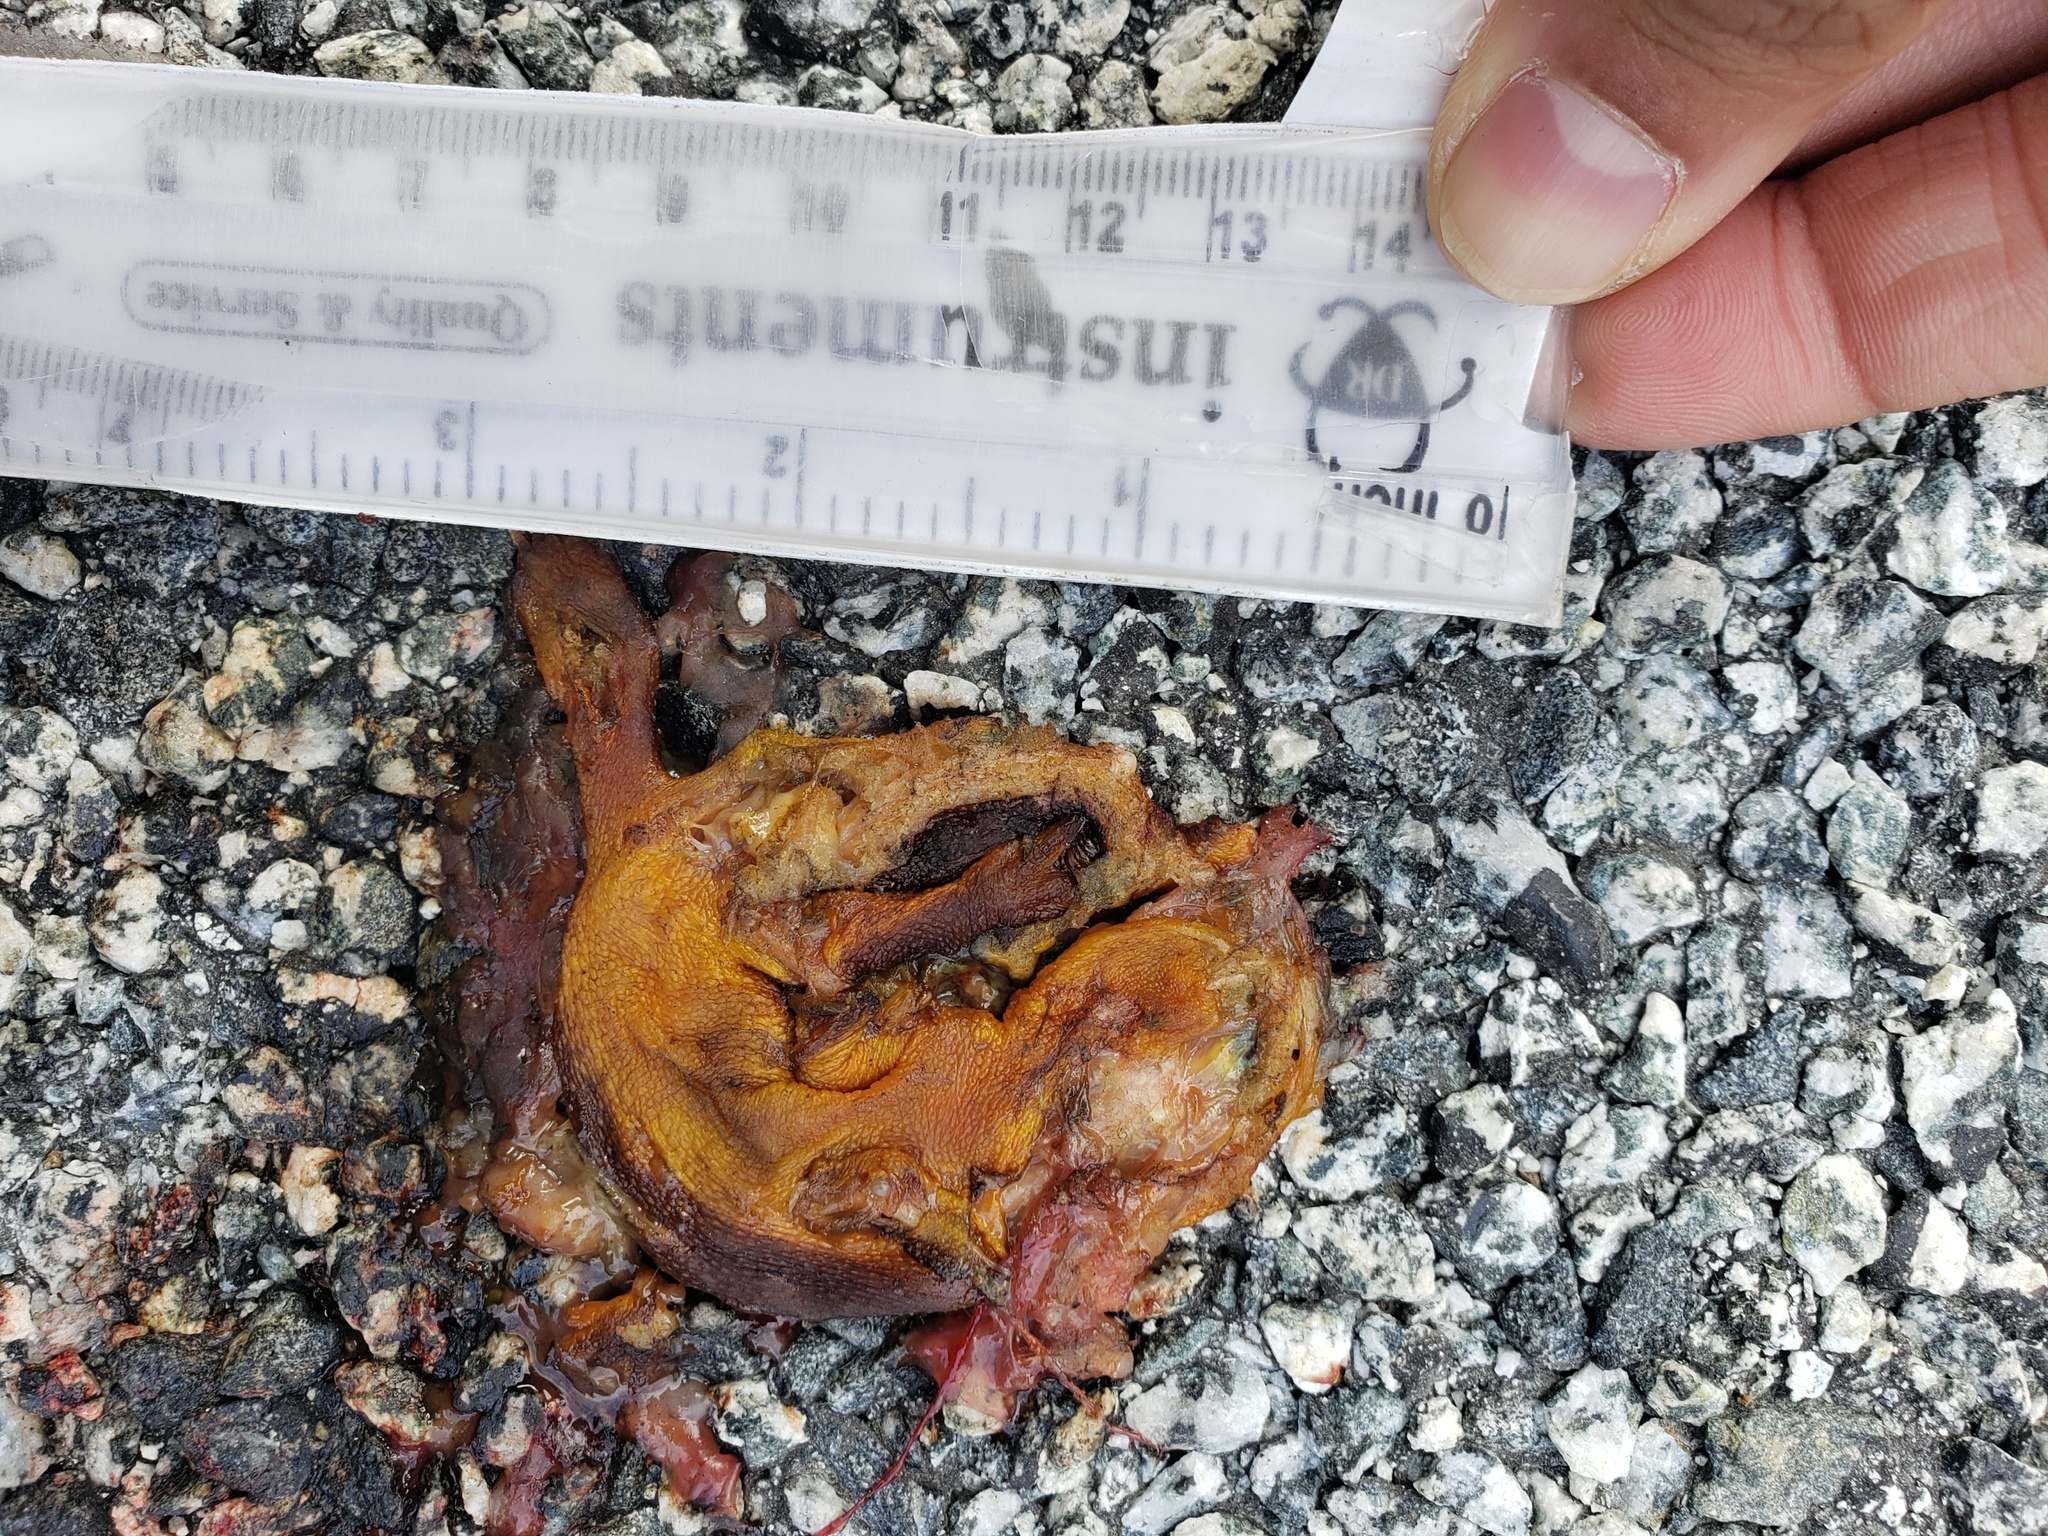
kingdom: Animalia
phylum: Chordata
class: Amphibia
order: Caudata
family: Salamandridae
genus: Taricha
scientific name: Taricha
